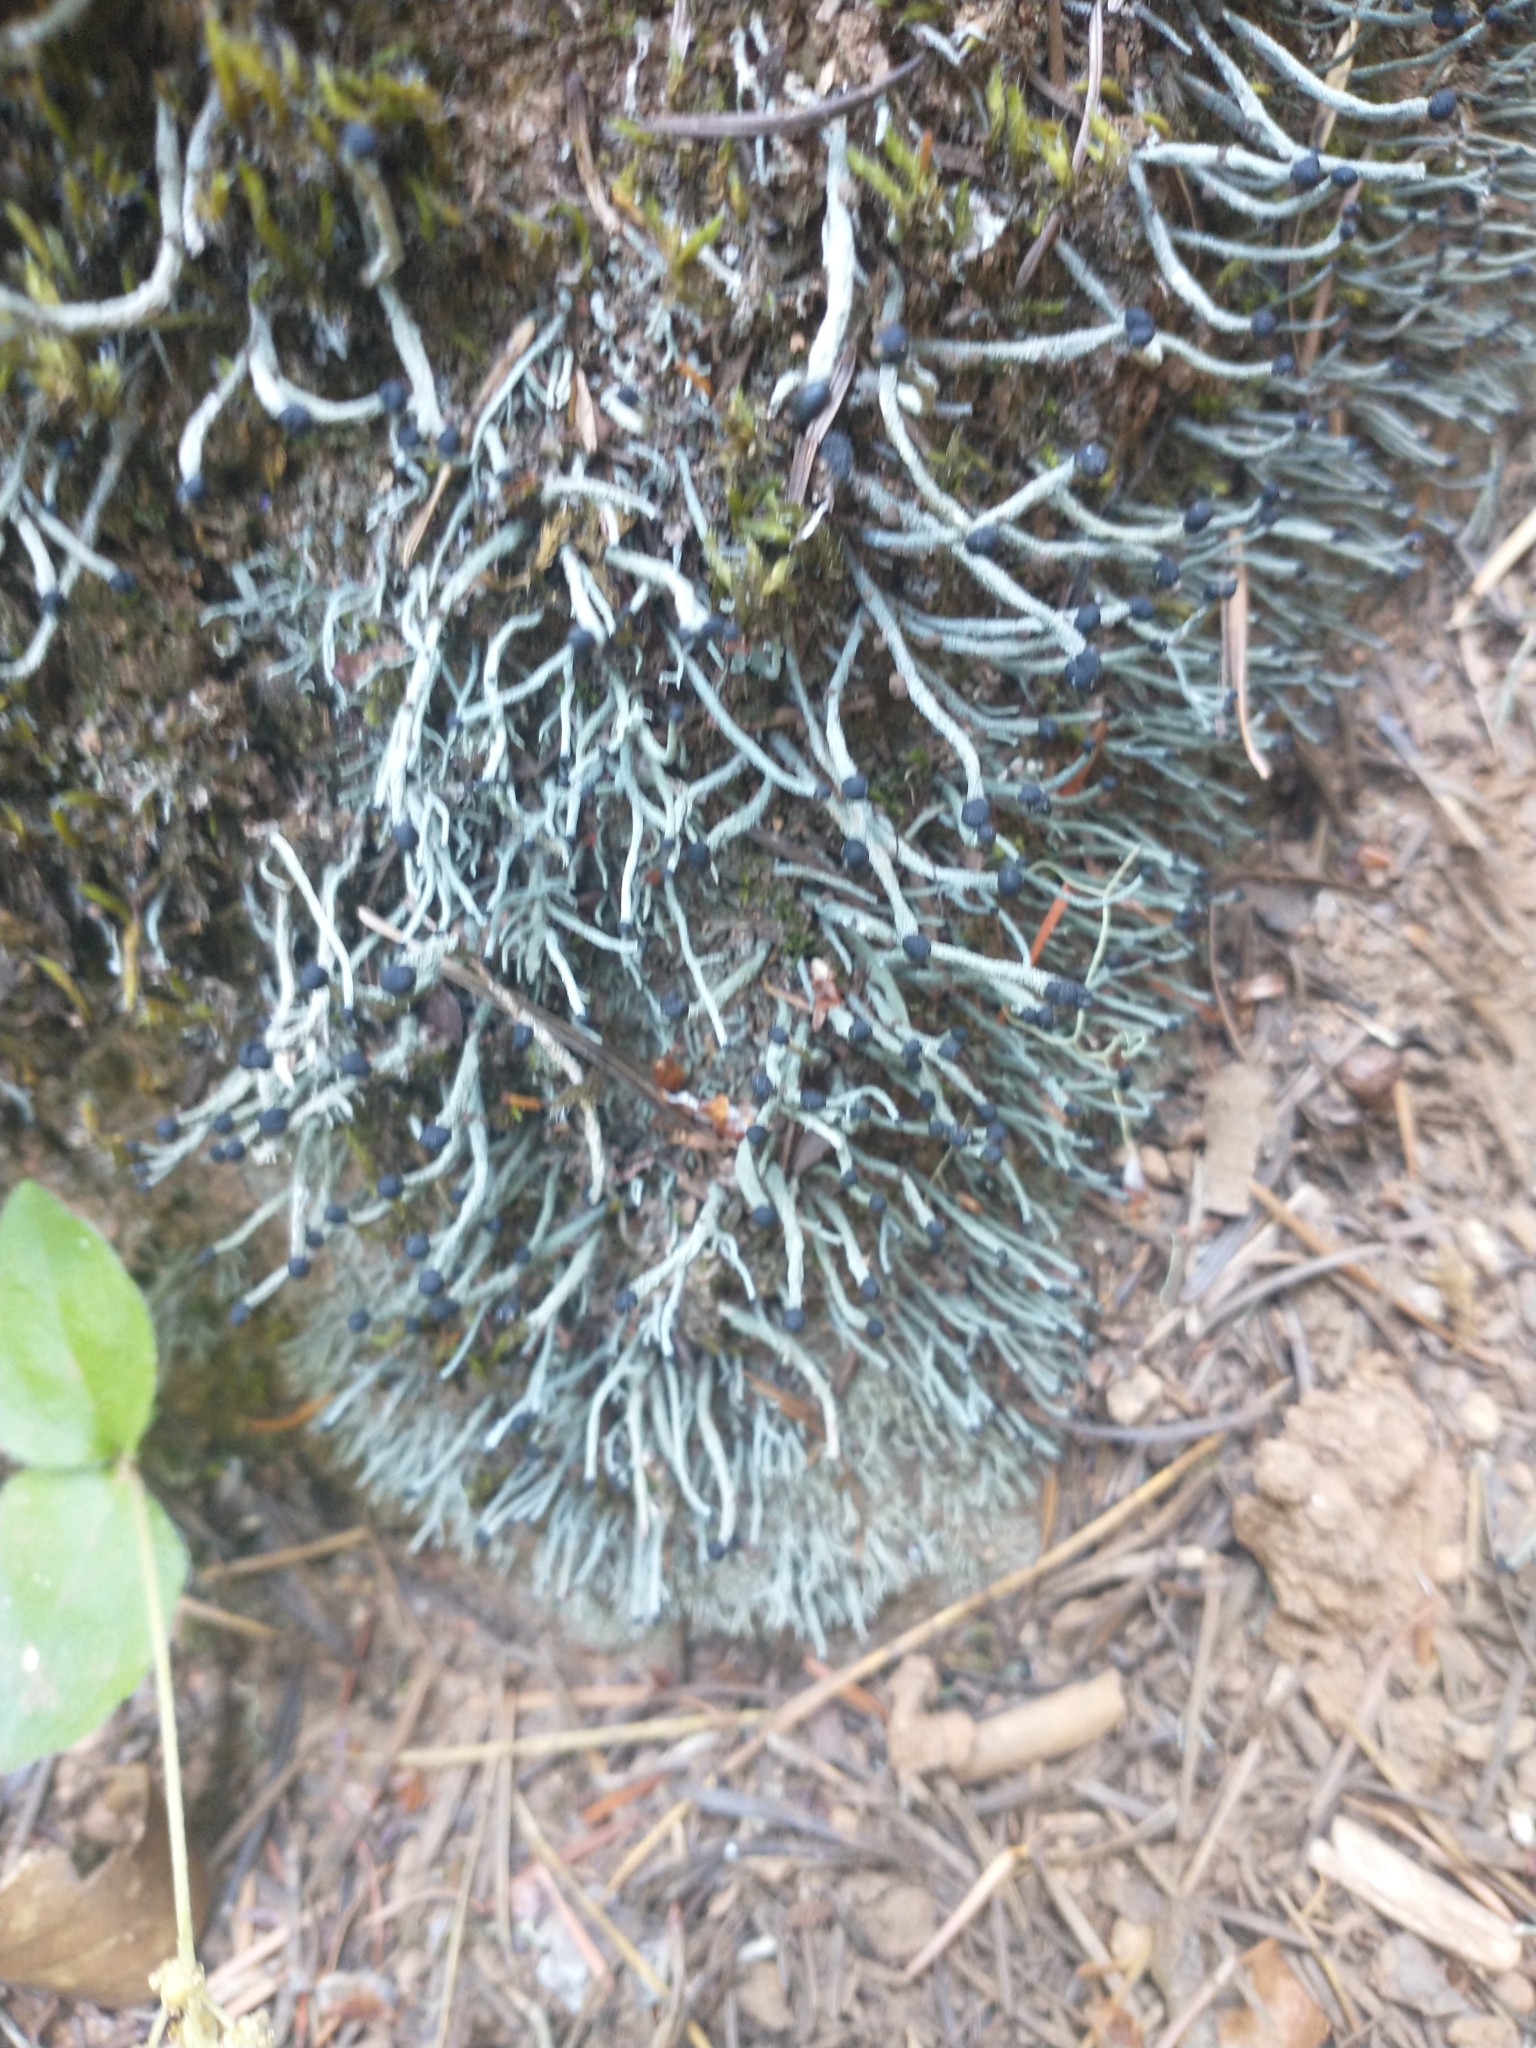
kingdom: Fungi
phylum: Ascomycota
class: Lecanoromycetes
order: Lecanorales
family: Cladoniaceae
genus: Pilophorus
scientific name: Pilophorus acicularis
